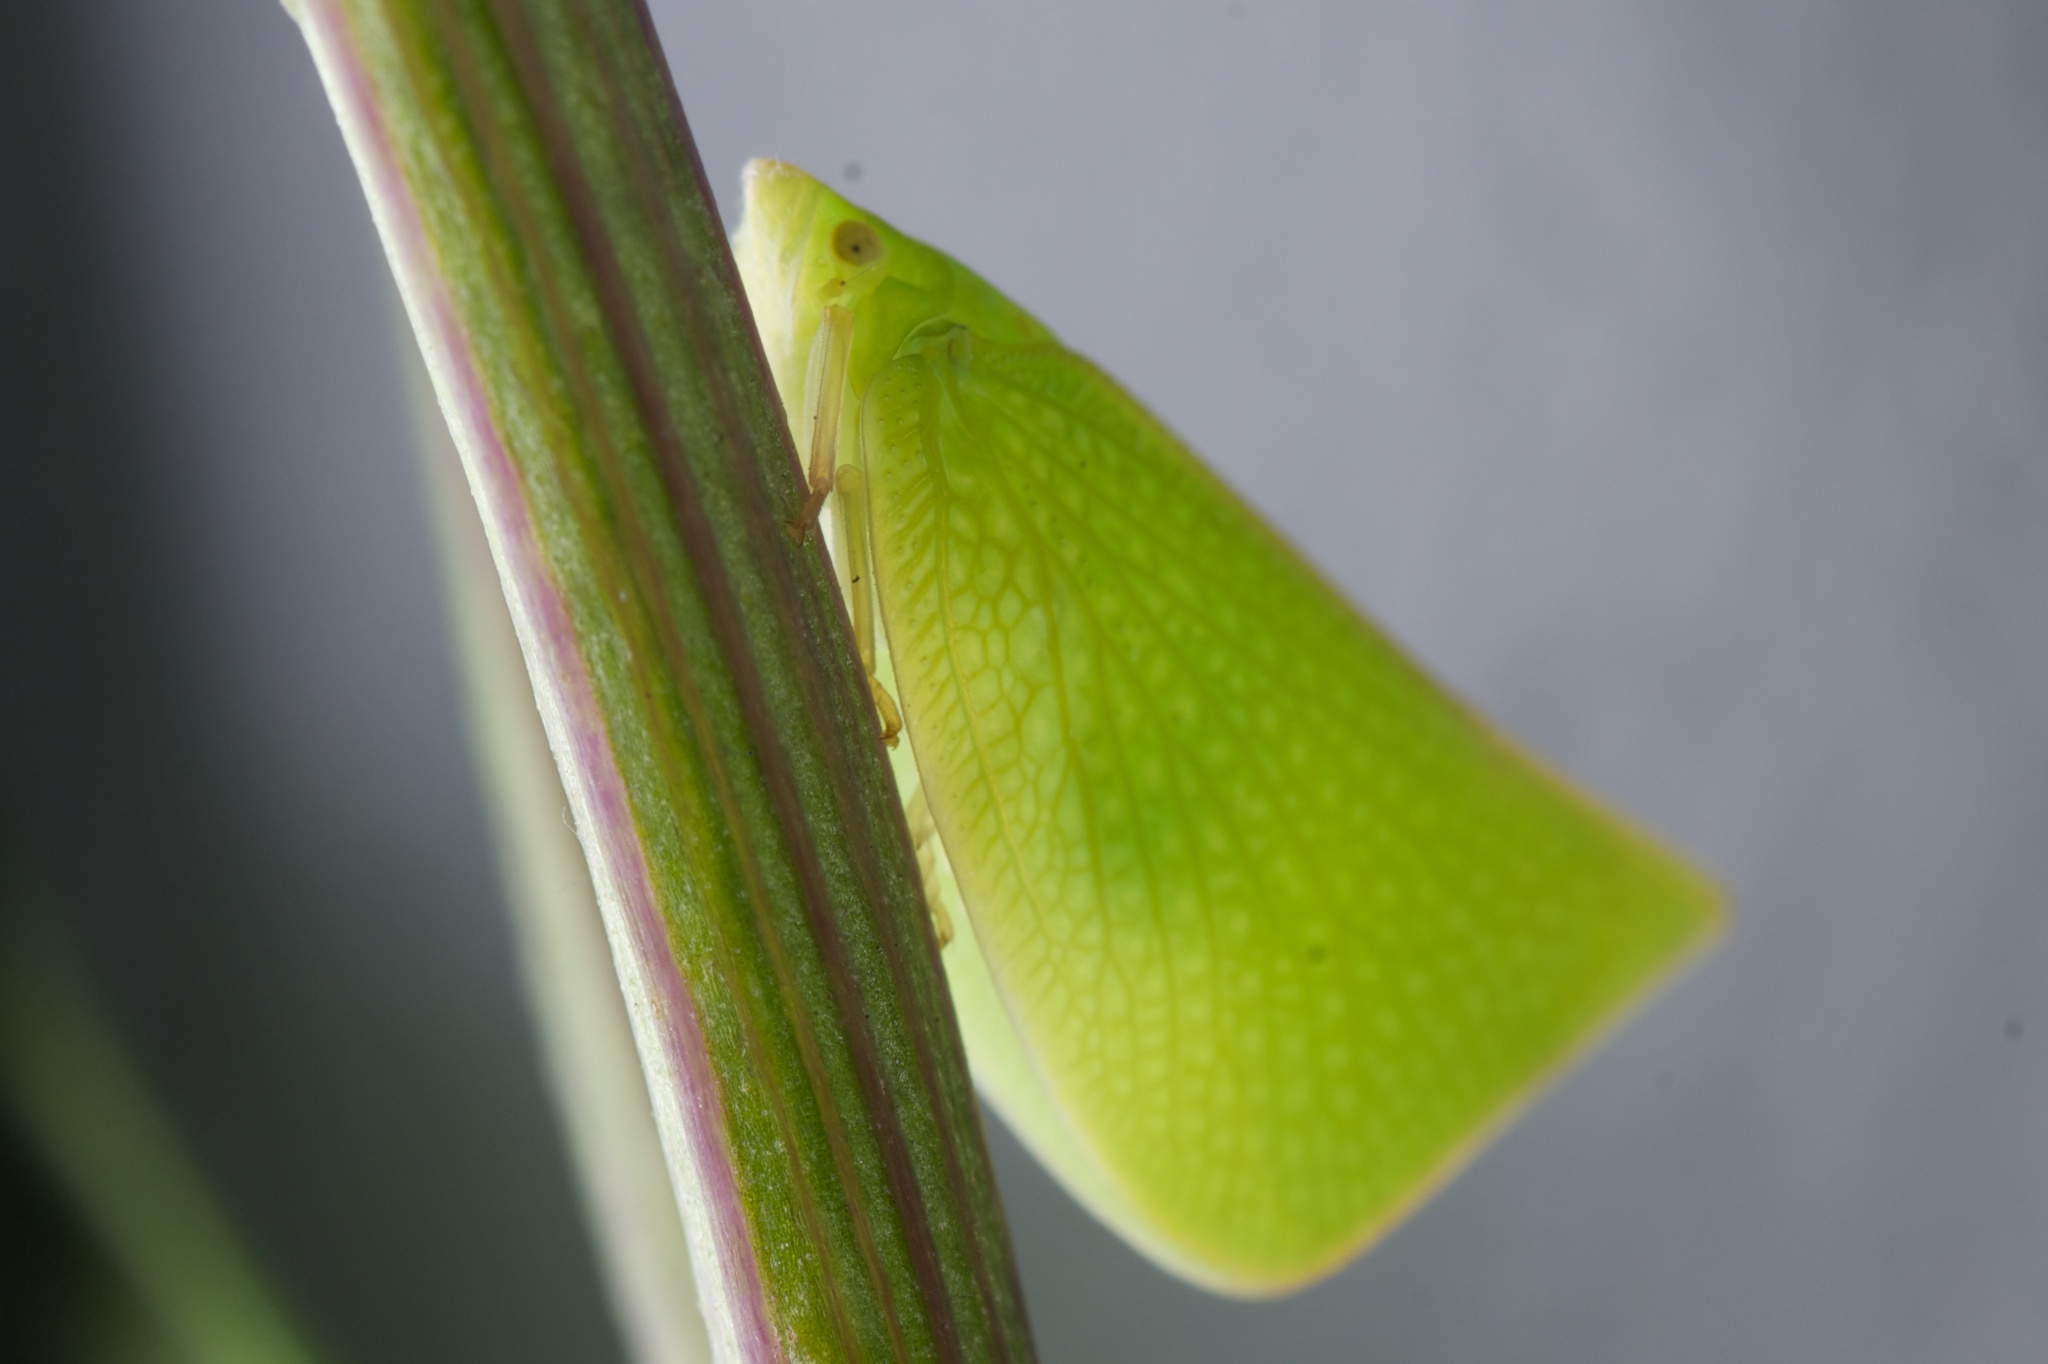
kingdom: Animalia
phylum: Arthropoda
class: Insecta
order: Hemiptera
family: Flatidae
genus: Siphanta
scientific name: Siphanta acuta
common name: Torpedo bug
